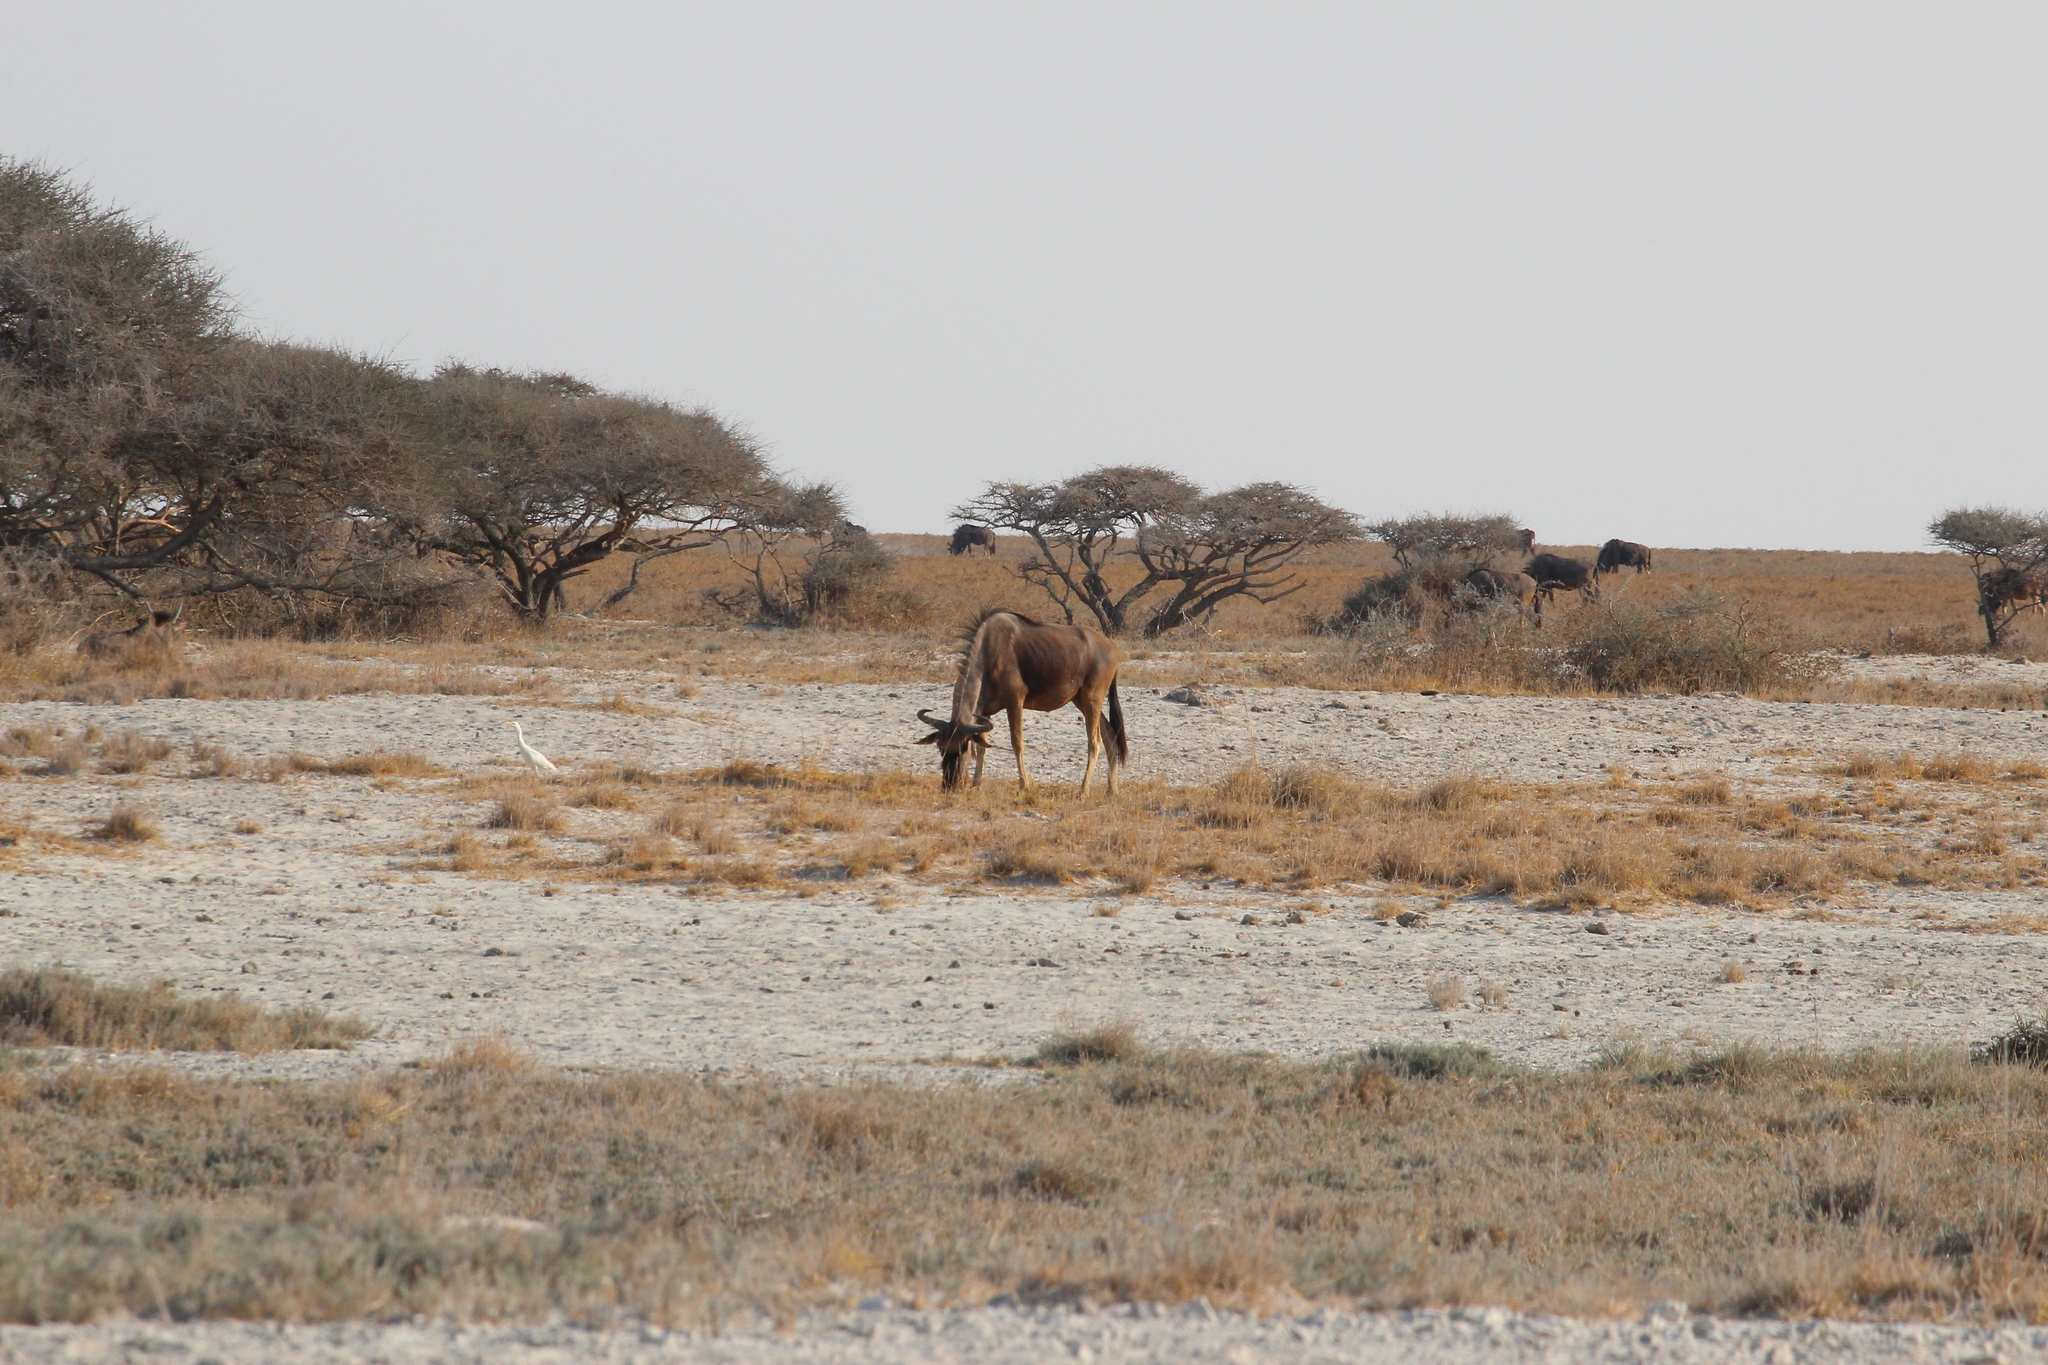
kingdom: Animalia
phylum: Chordata
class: Mammalia
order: Artiodactyla
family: Bovidae
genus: Connochaetes
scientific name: Connochaetes taurinus
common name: Blue wildebeest
